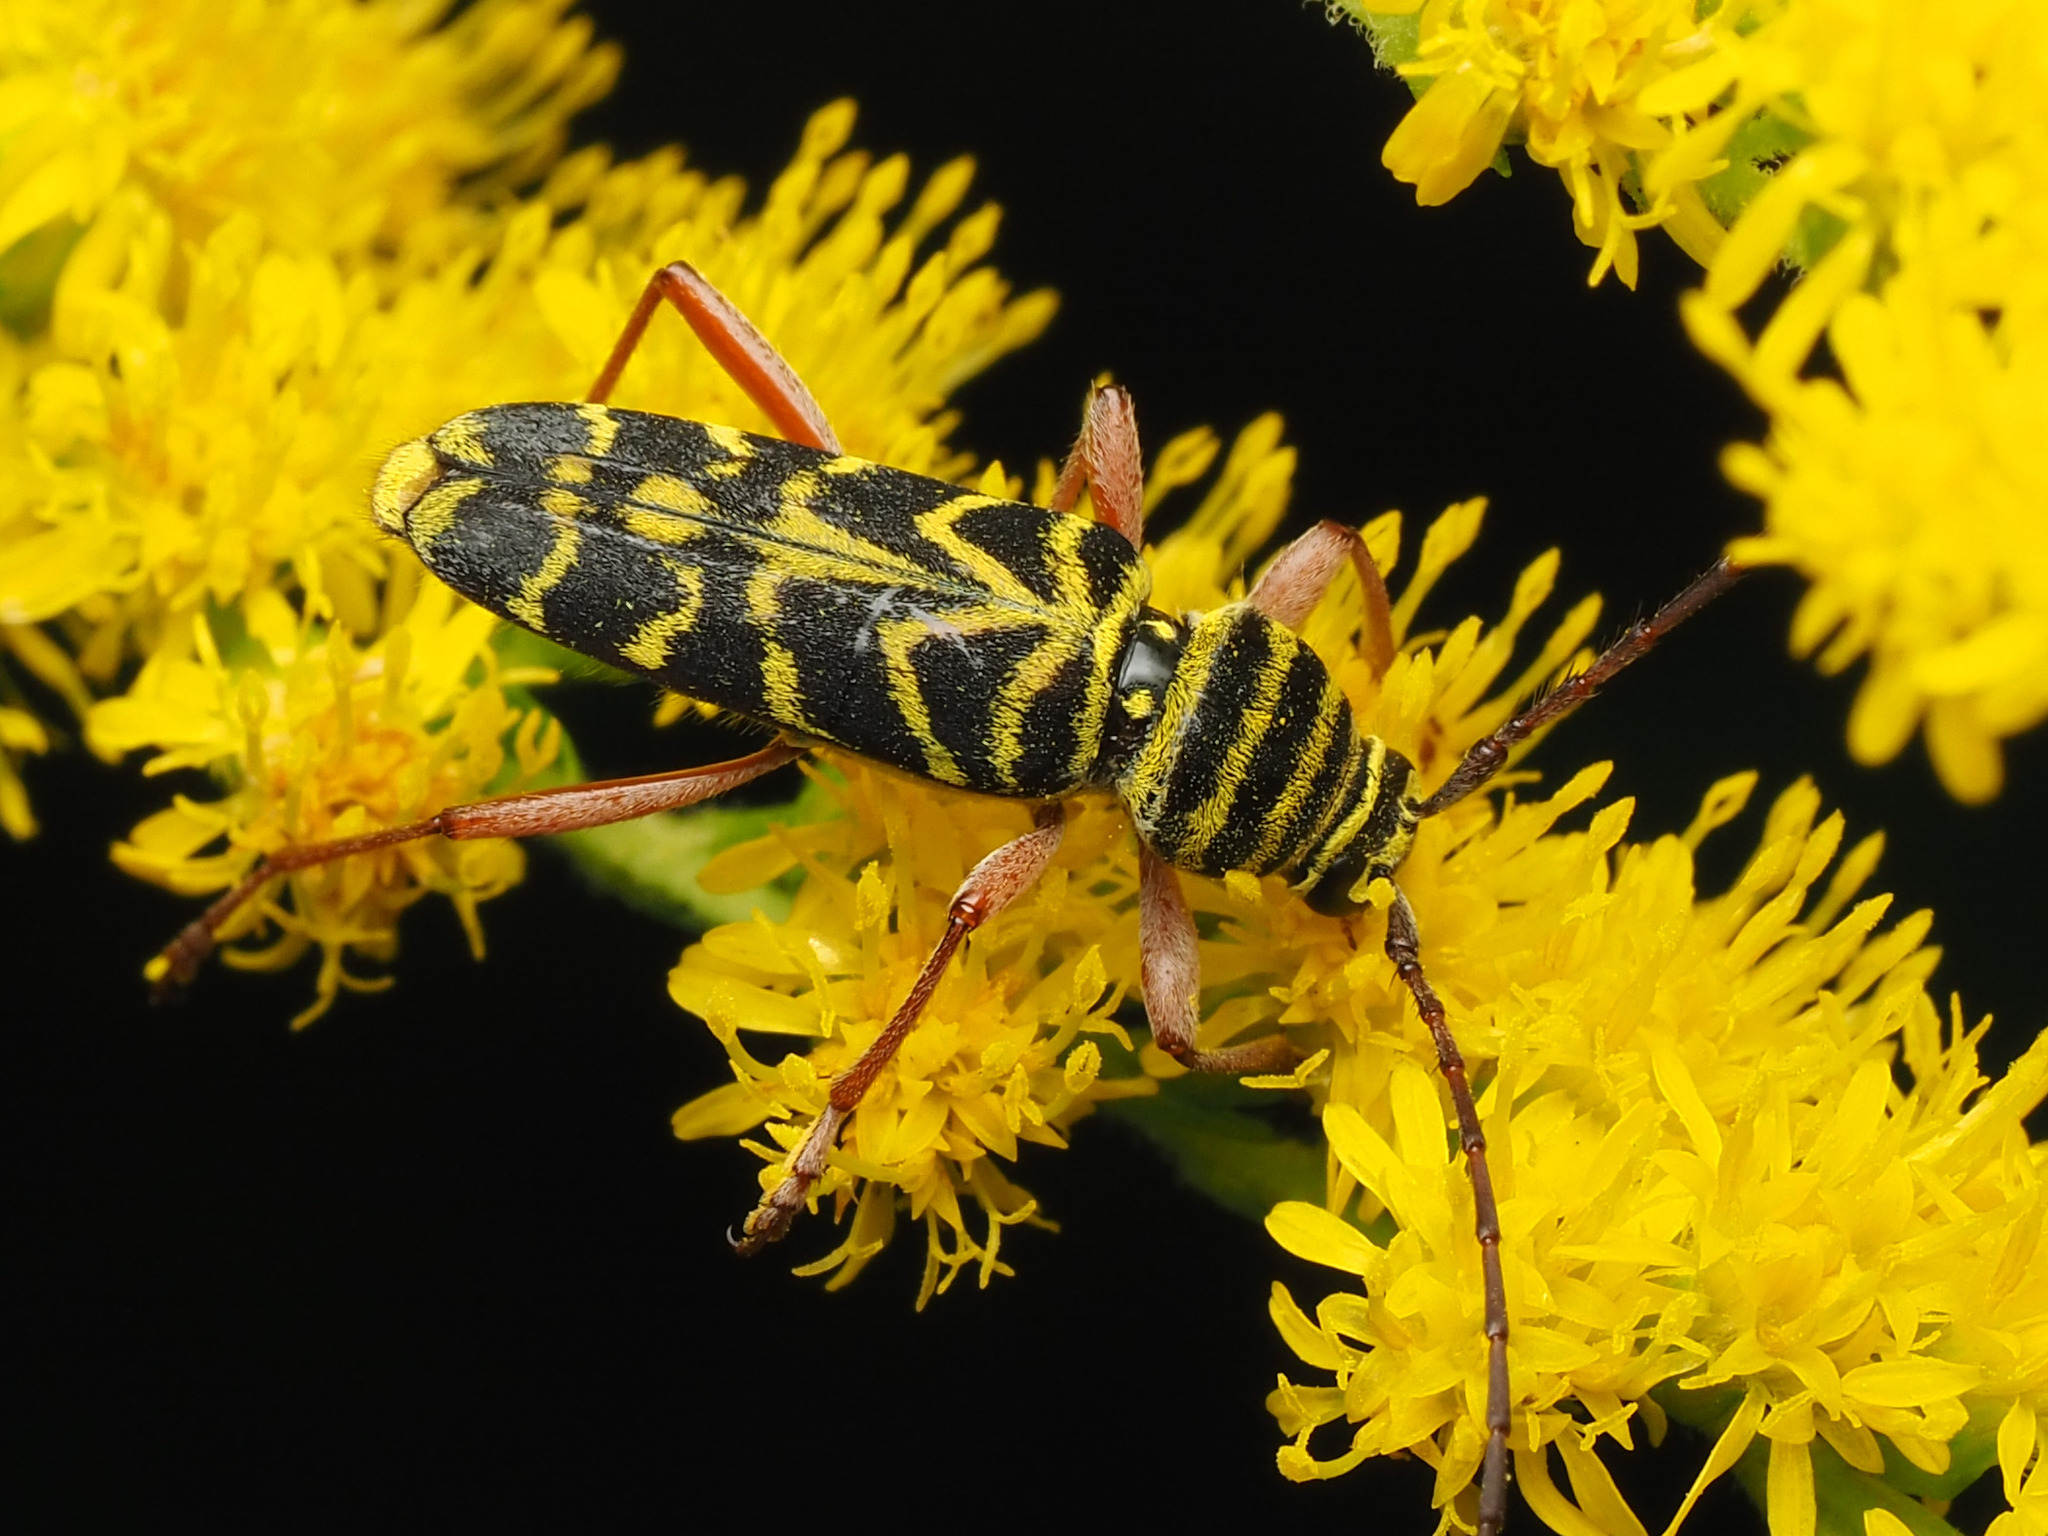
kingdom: Animalia
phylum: Arthropoda
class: Insecta
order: Coleoptera
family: Cerambycidae
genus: Megacyllene
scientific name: Megacyllene robiniae
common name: Locust borer
